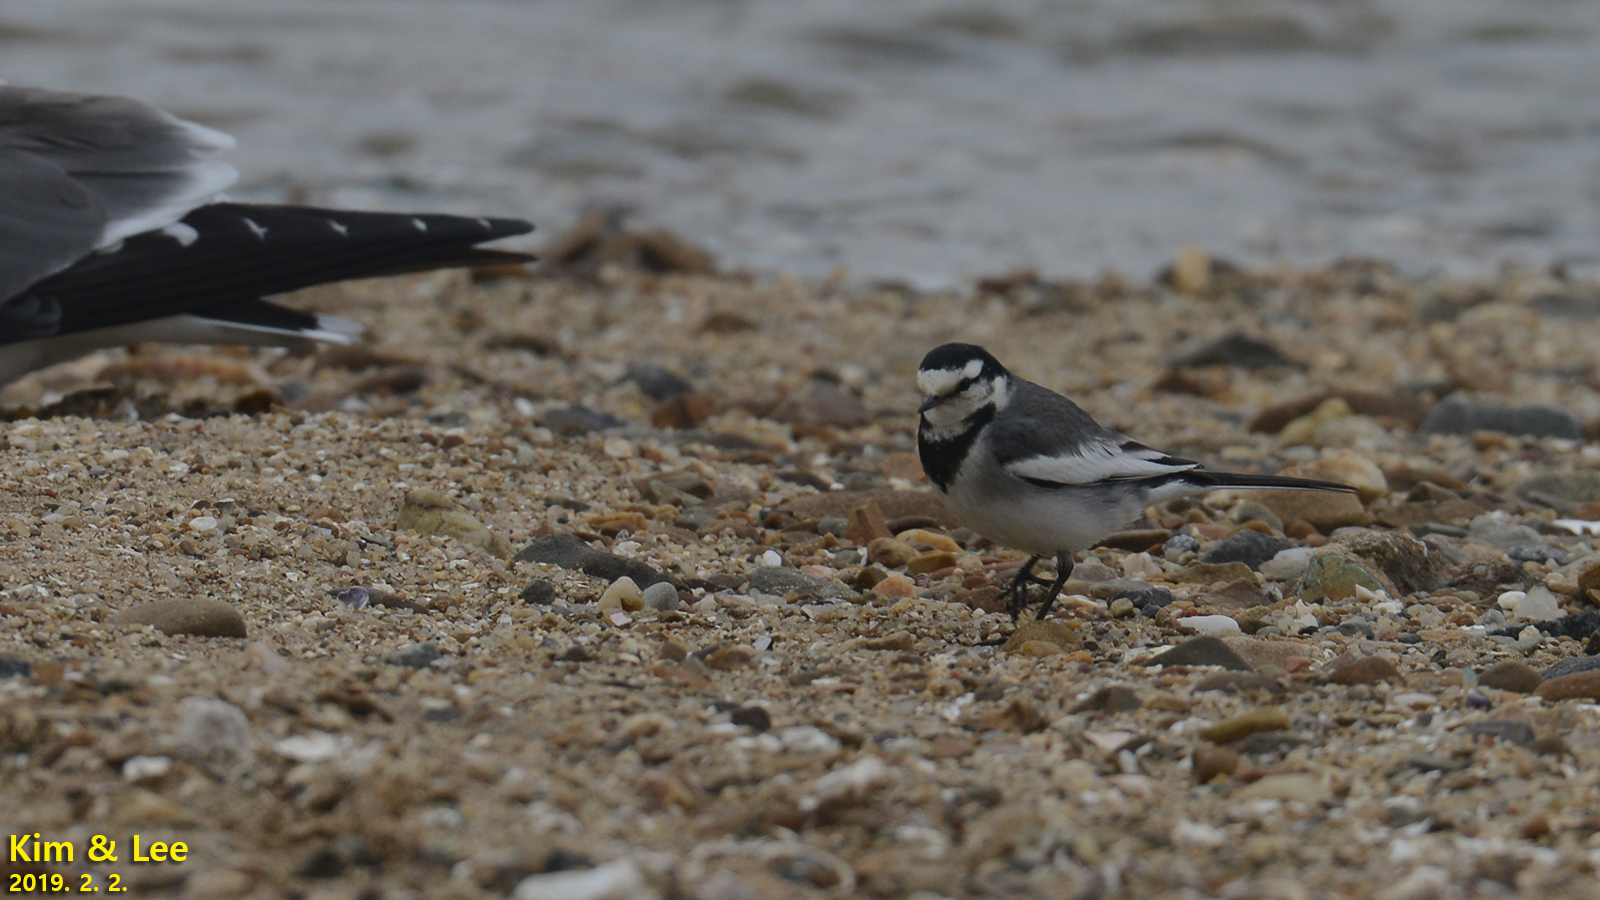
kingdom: Animalia
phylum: Chordata
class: Aves
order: Passeriformes
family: Motacillidae
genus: Motacilla
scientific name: Motacilla alba
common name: White wagtail
